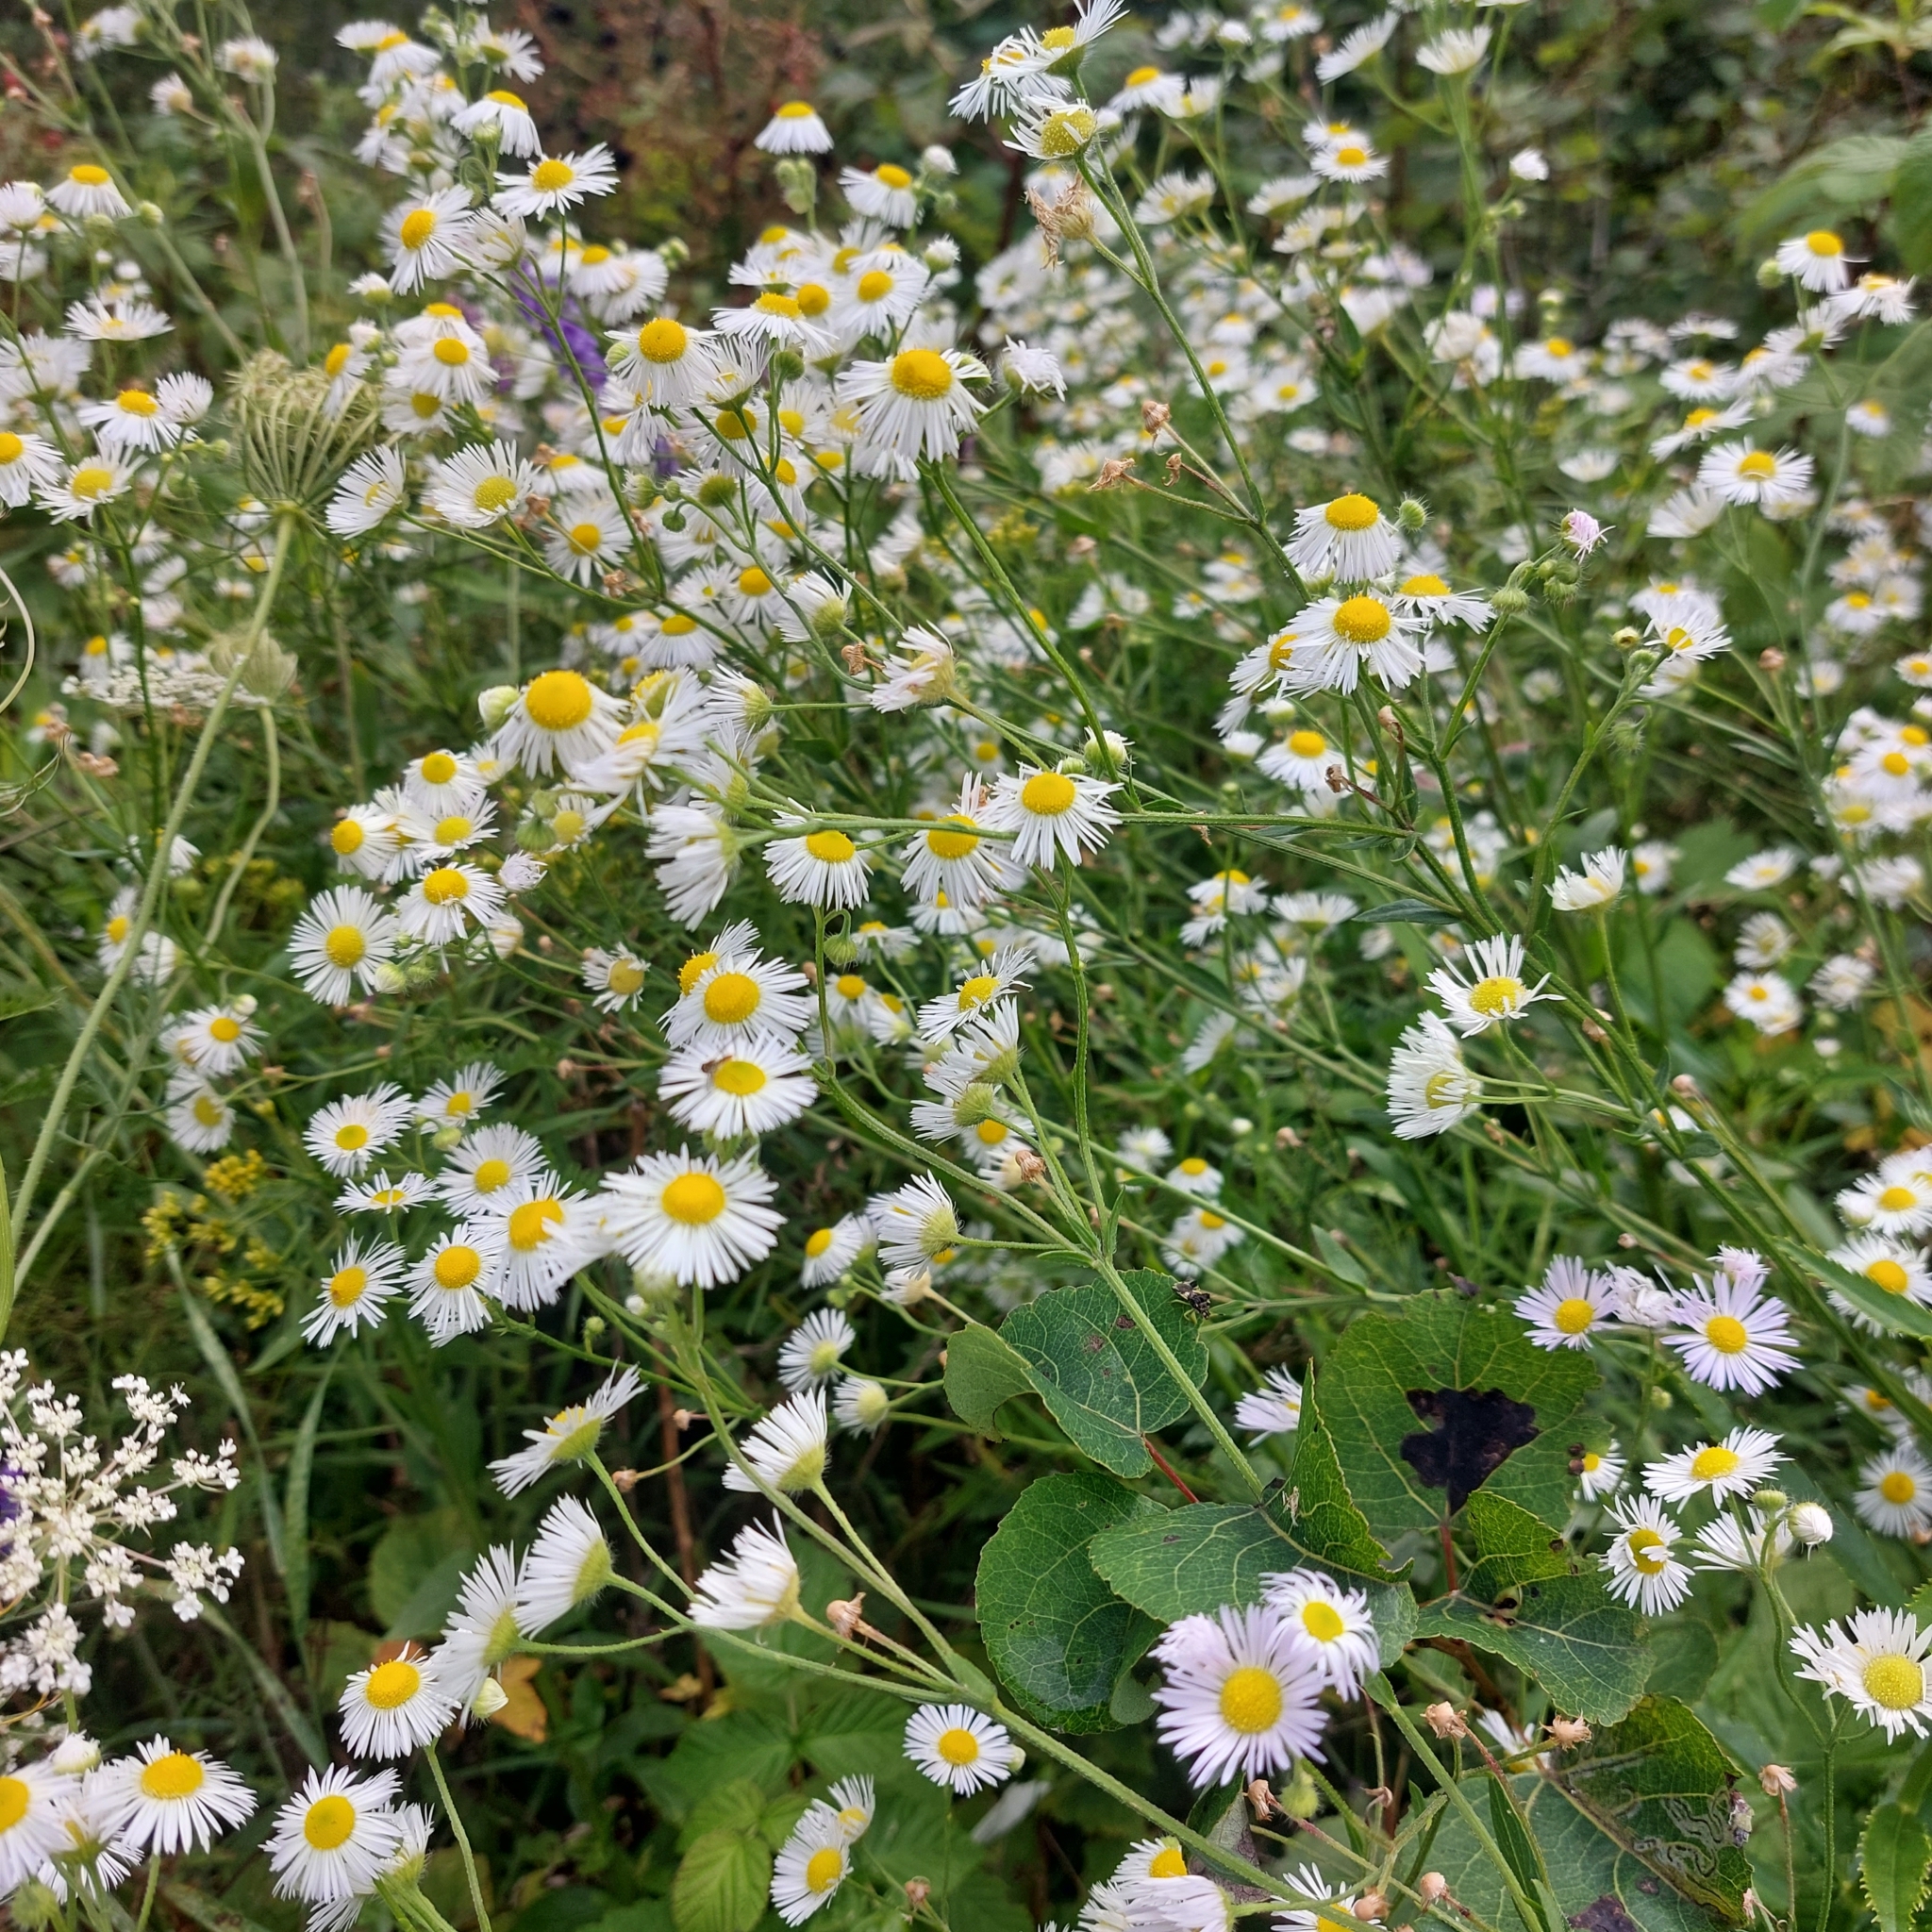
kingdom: Plantae
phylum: Tracheophyta
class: Magnoliopsida
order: Asterales
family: Asteraceae
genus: Erigeron
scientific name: Erigeron strigosus
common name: Common eastern fleabane
